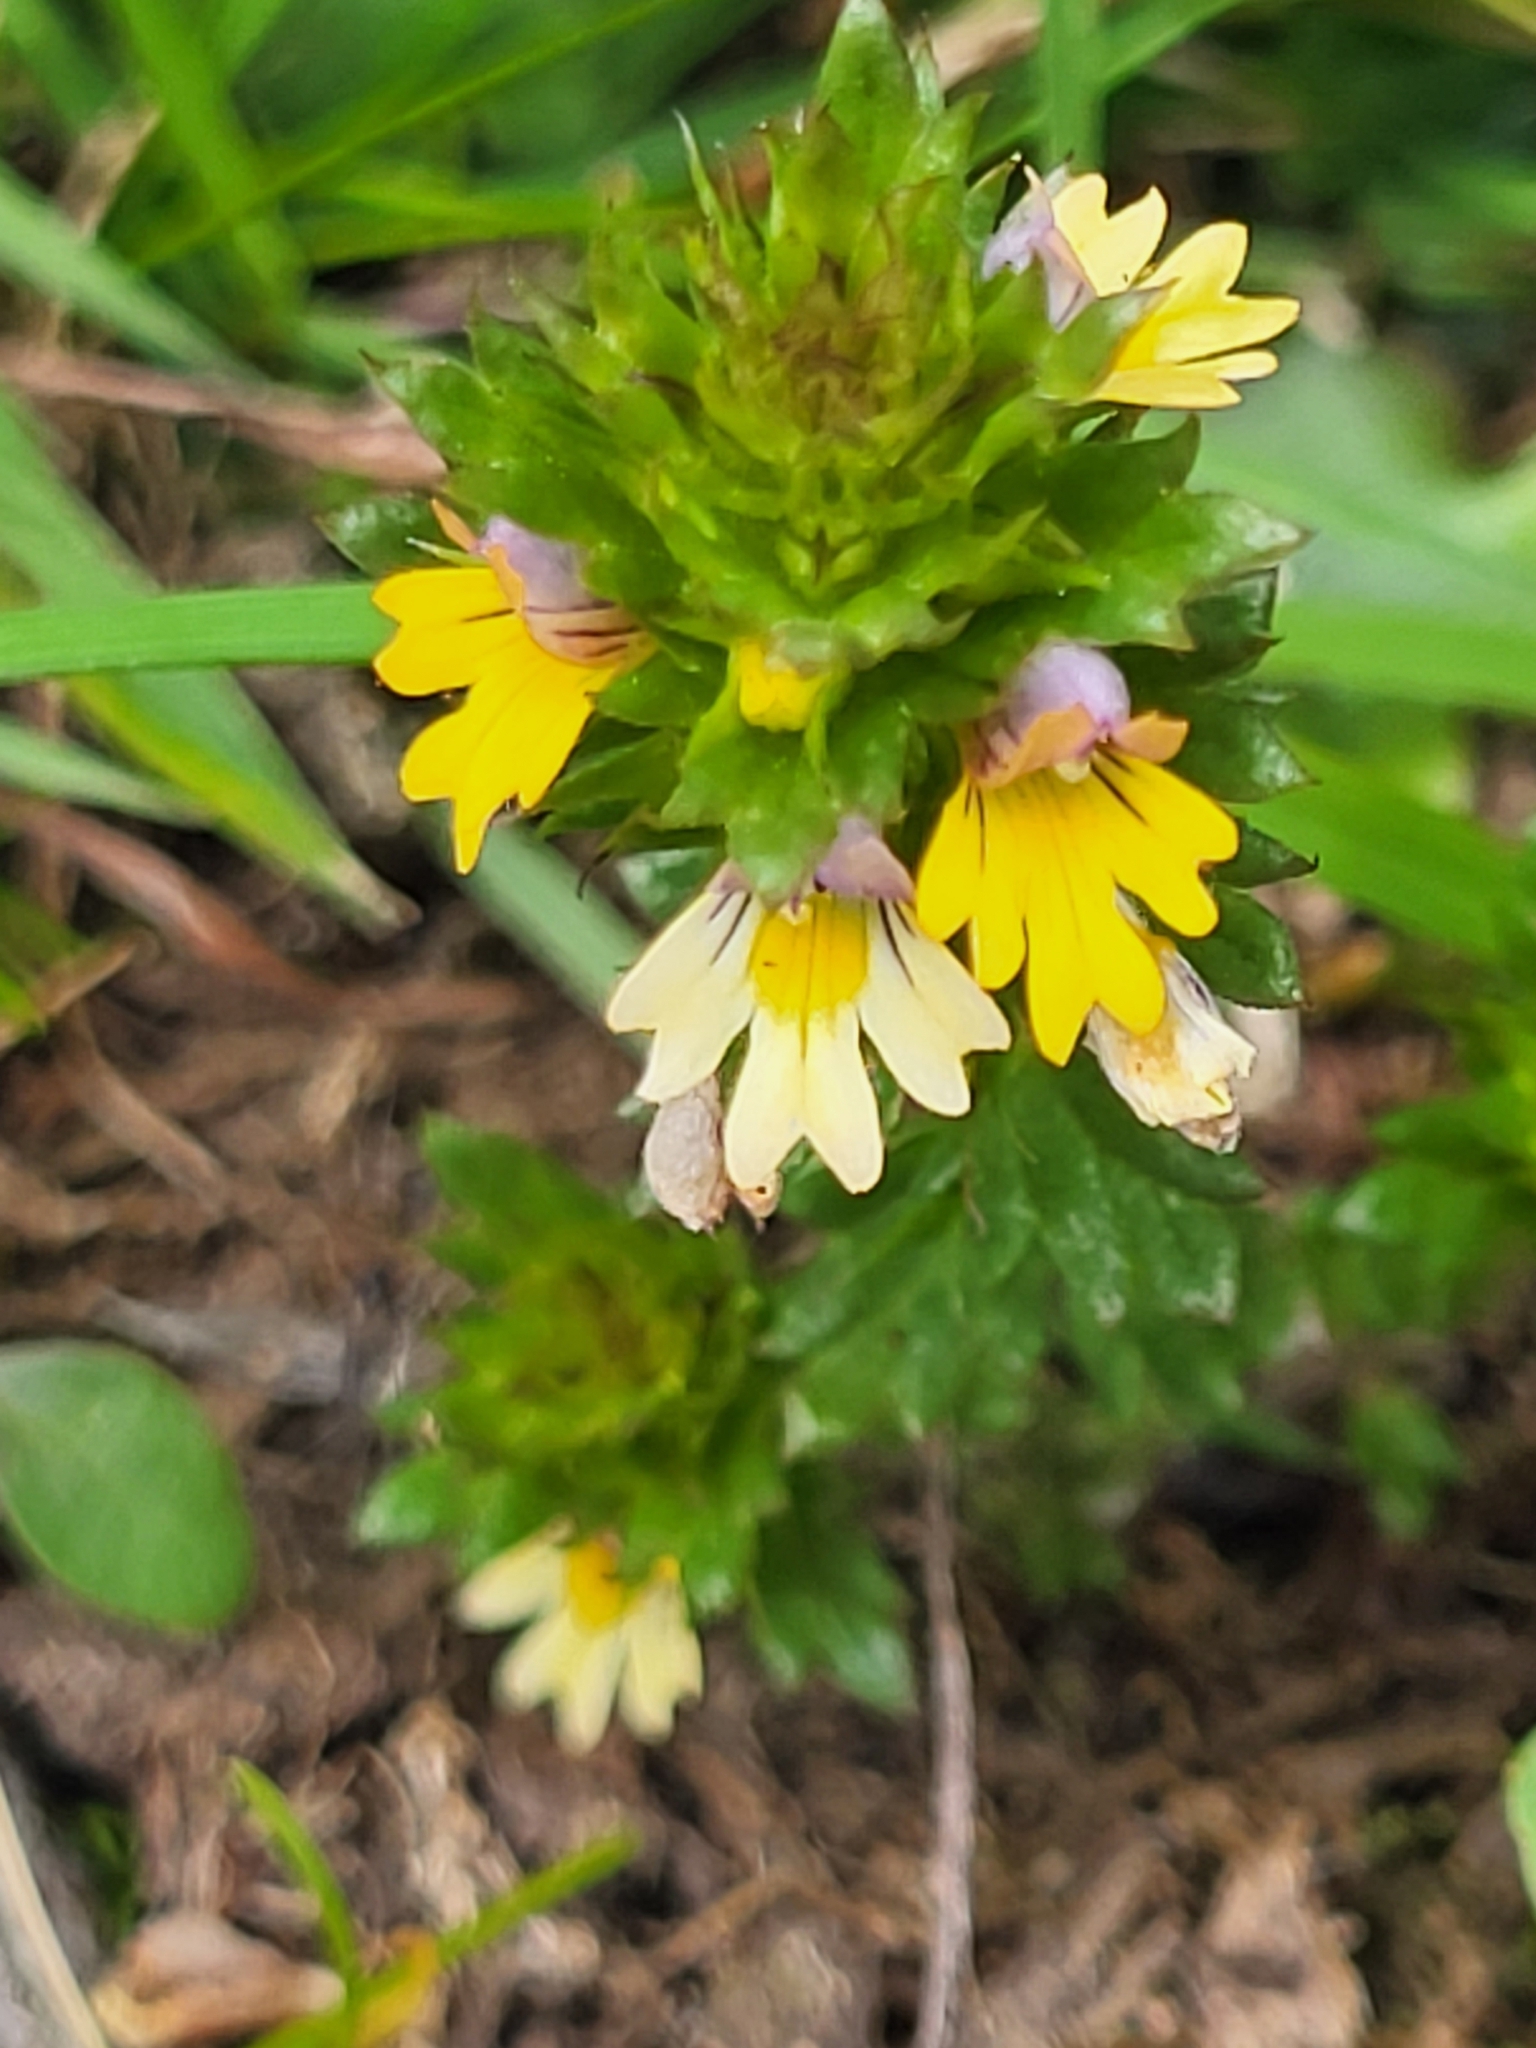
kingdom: Plantae
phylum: Tracheophyta
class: Magnoliopsida
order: Lamiales
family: Orobanchaceae
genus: Euphrasia
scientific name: Euphrasia minima
